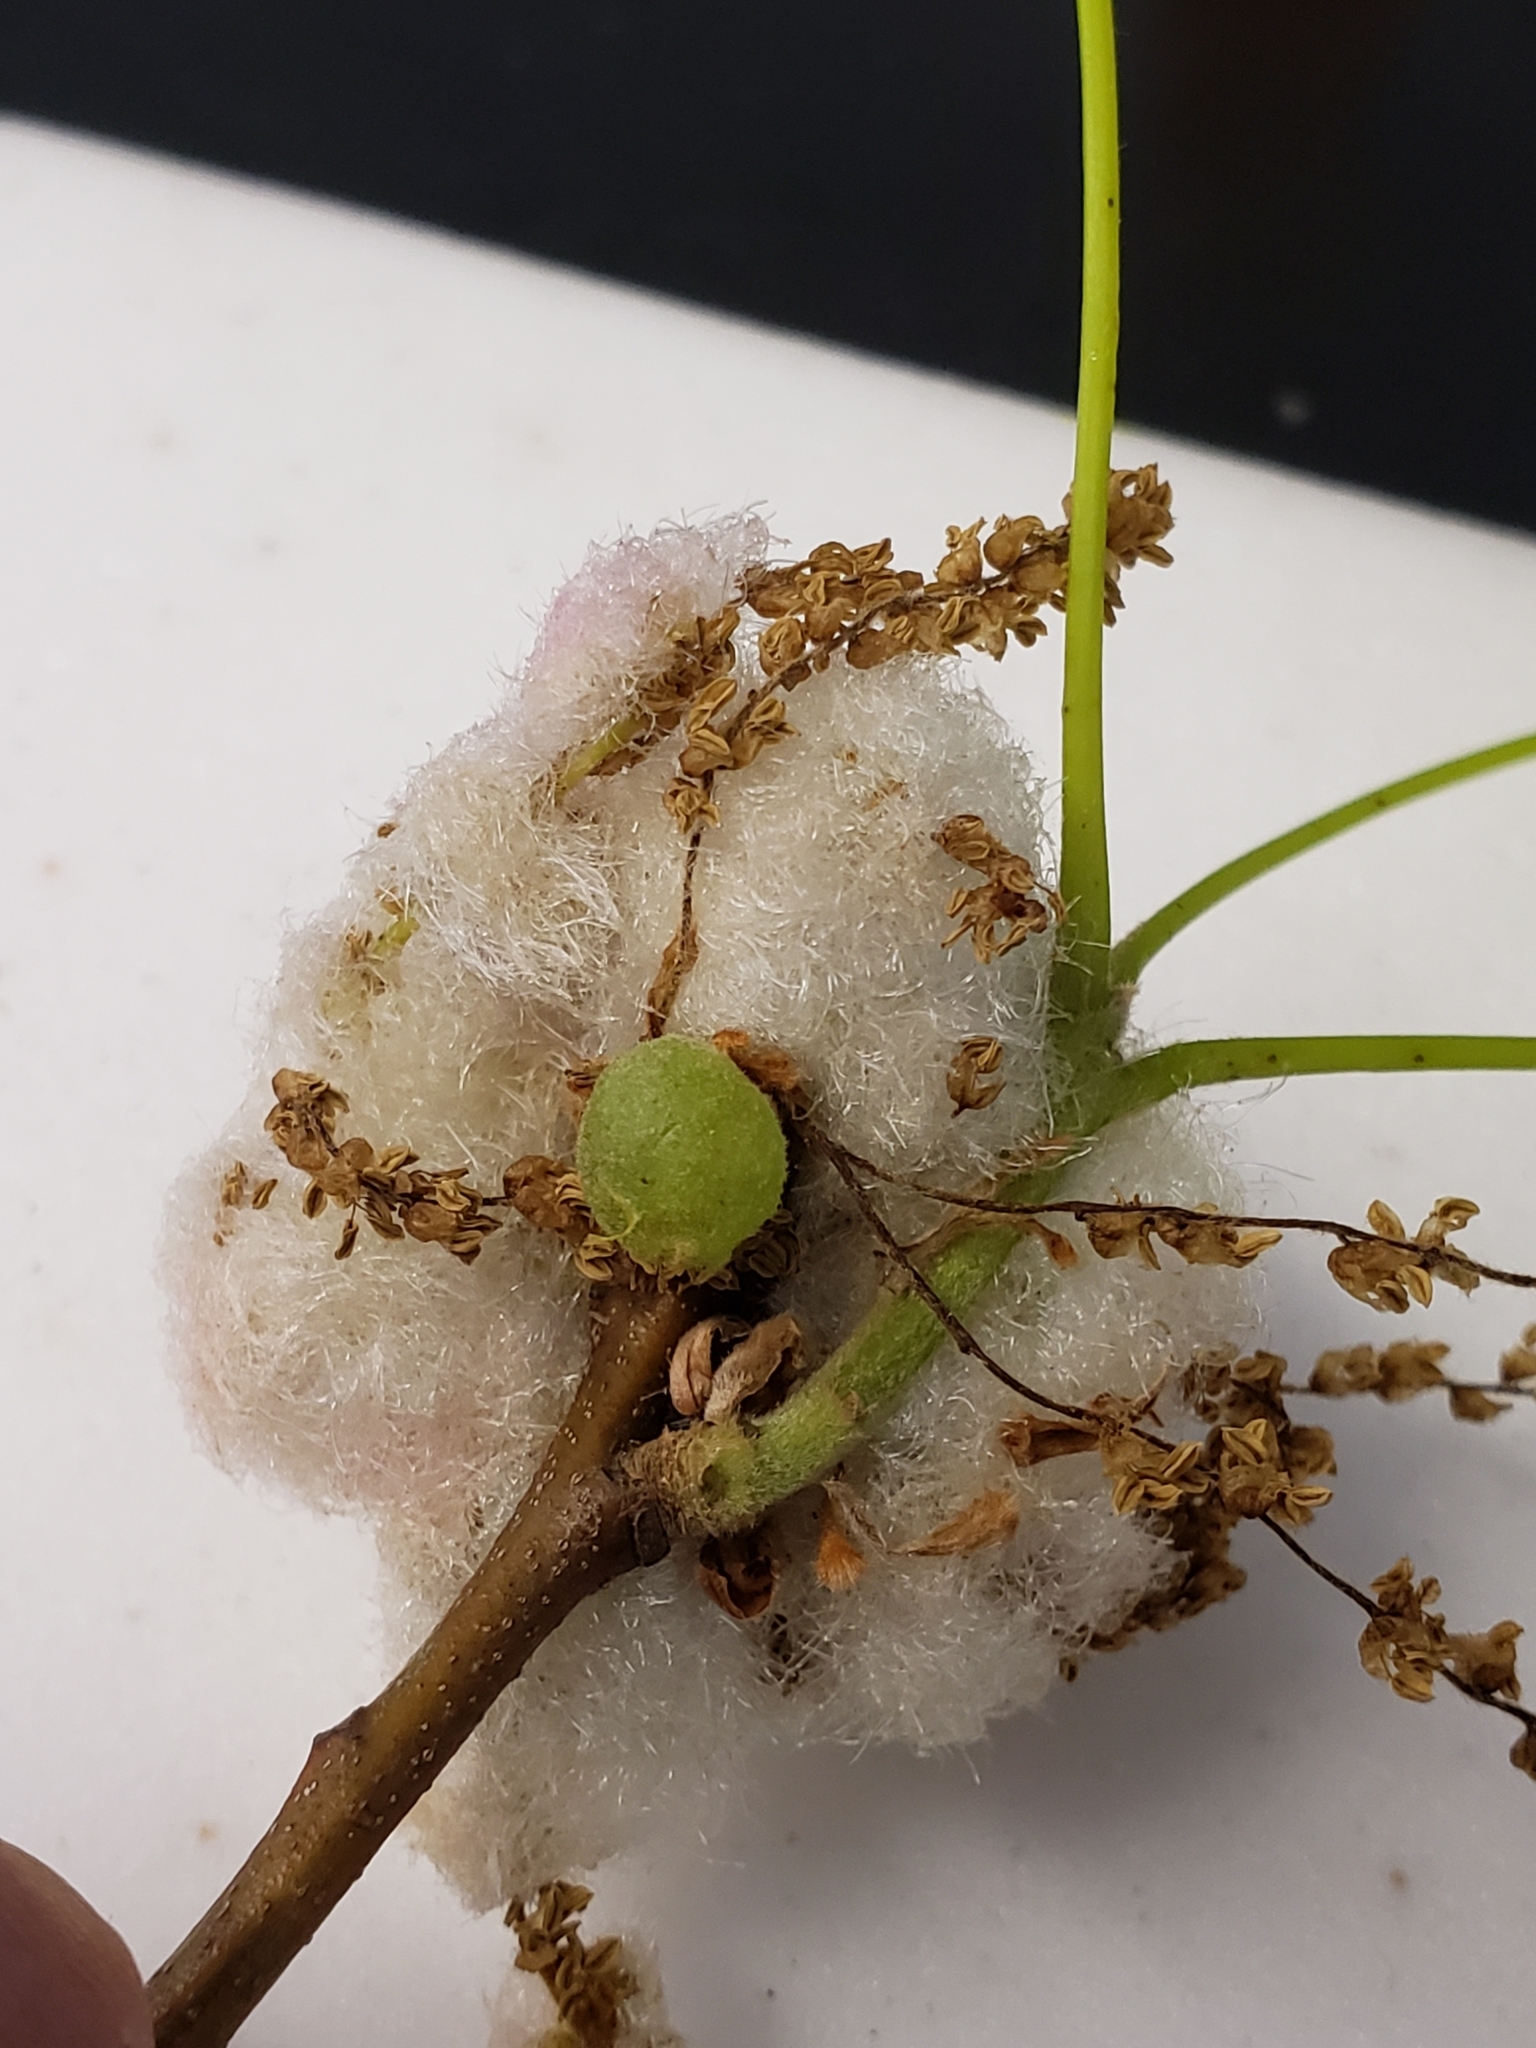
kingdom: Animalia
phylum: Arthropoda
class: Insecta
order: Hymenoptera
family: Cynipidae
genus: Dryocosmus
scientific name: Dryocosmus quercuspalustris
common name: Succulent oak gall wasp
